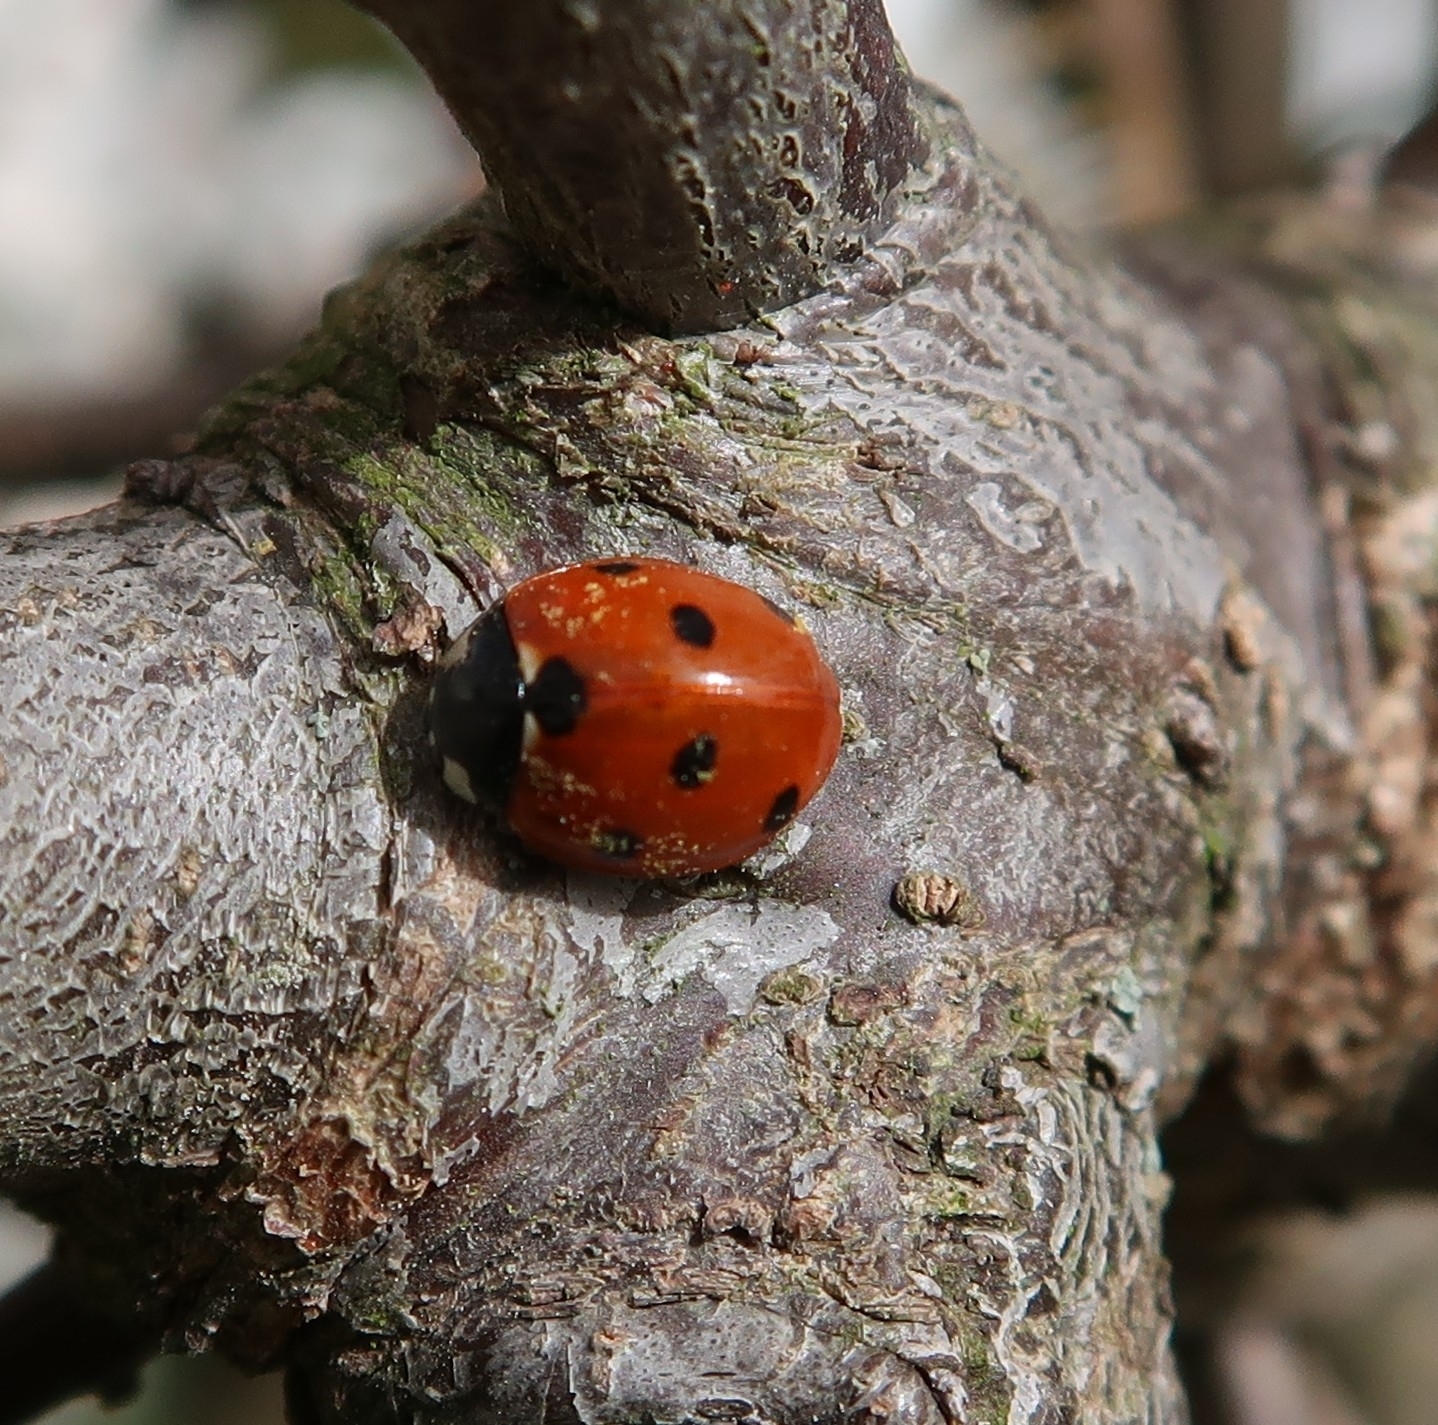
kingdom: Animalia
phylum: Arthropoda
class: Insecta
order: Coleoptera
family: Coccinellidae
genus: Coccinella
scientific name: Coccinella septempunctata
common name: Sevenspotted lady beetle
